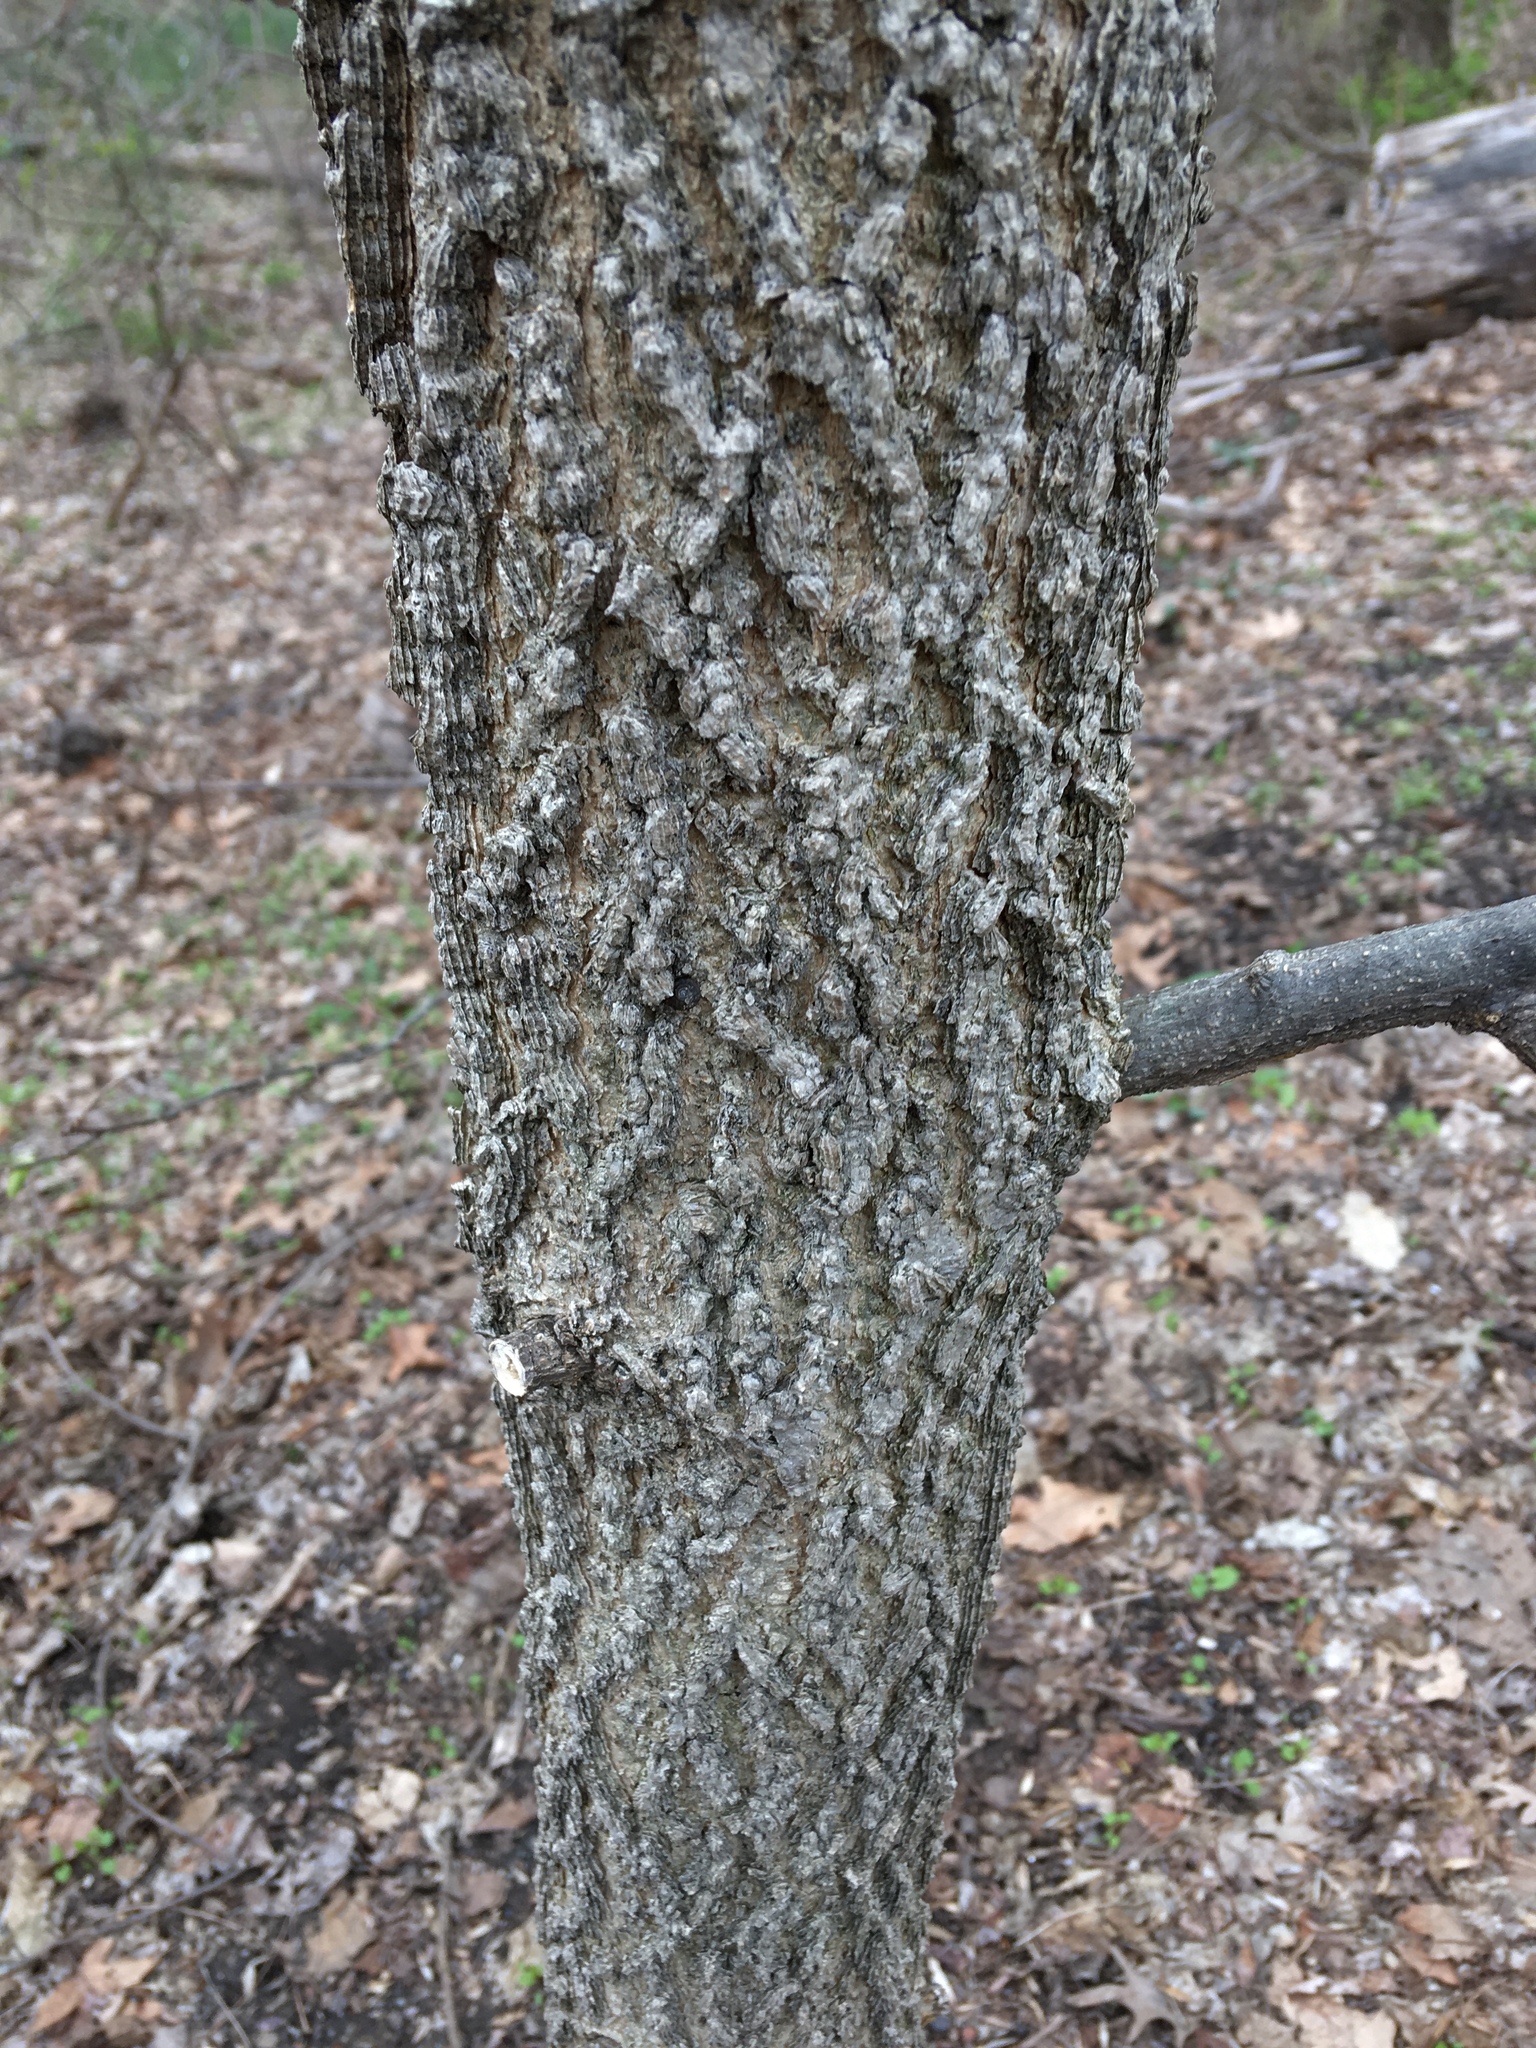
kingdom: Plantae
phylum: Tracheophyta
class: Magnoliopsida
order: Rosales
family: Cannabaceae
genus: Celtis
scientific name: Celtis occidentalis
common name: Common hackberry
